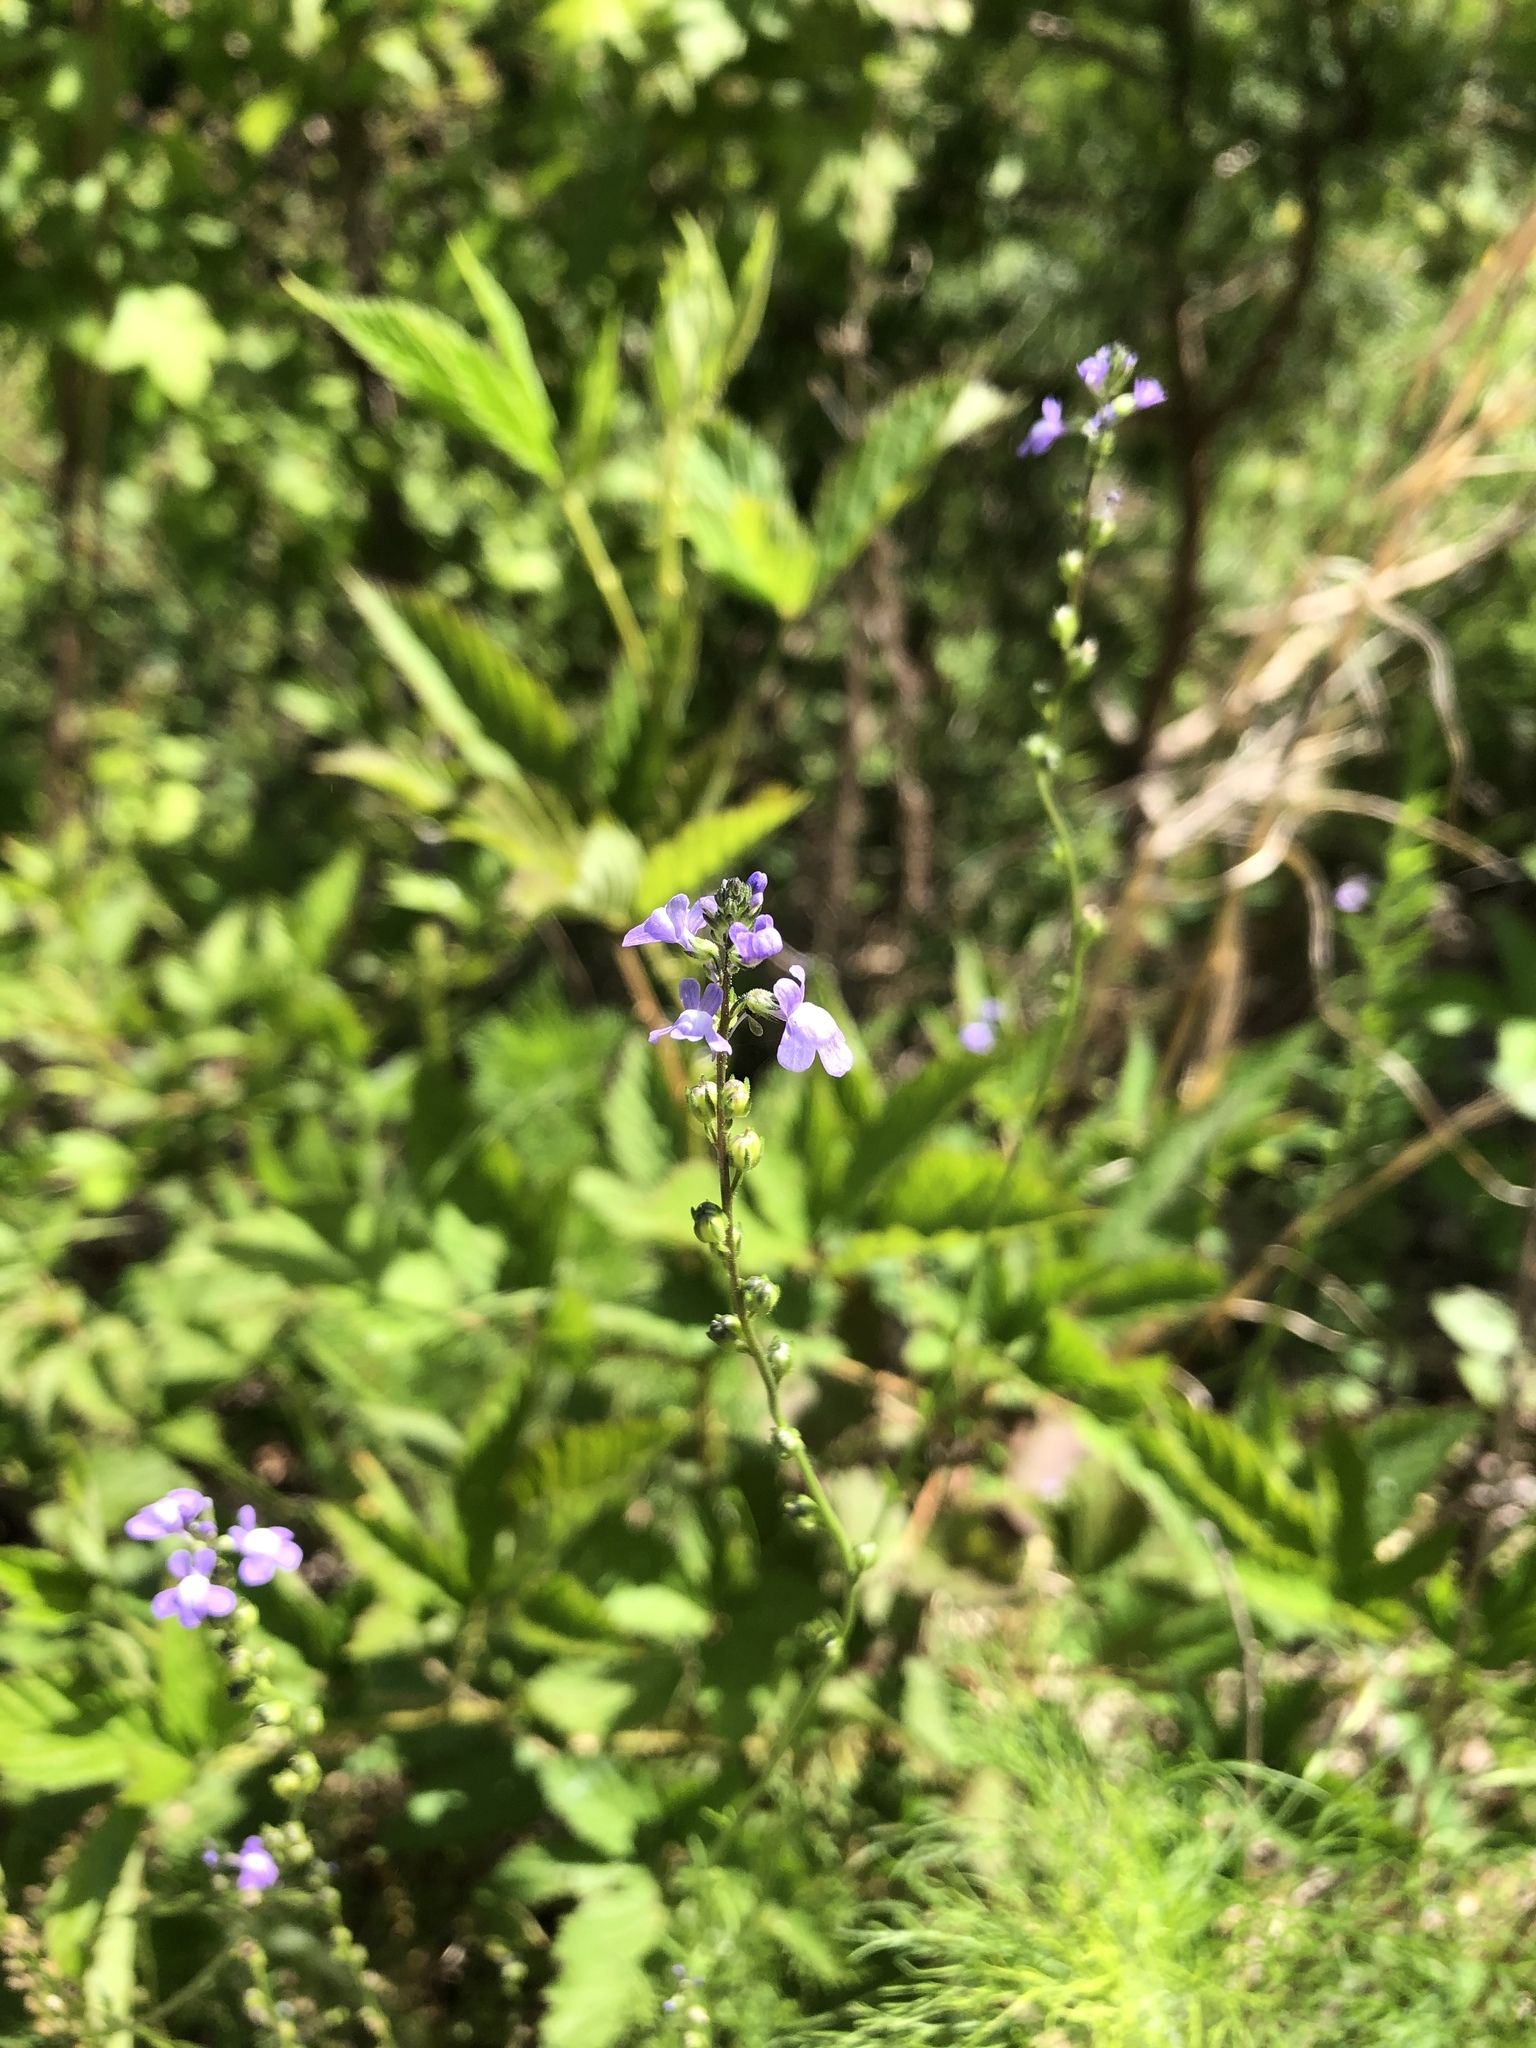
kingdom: Plantae
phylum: Tracheophyta
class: Magnoliopsida
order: Lamiales
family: Plantaginaceae
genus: Nuttallanthus
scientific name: Nuttallanthus canadensis
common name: Blue toadflax
